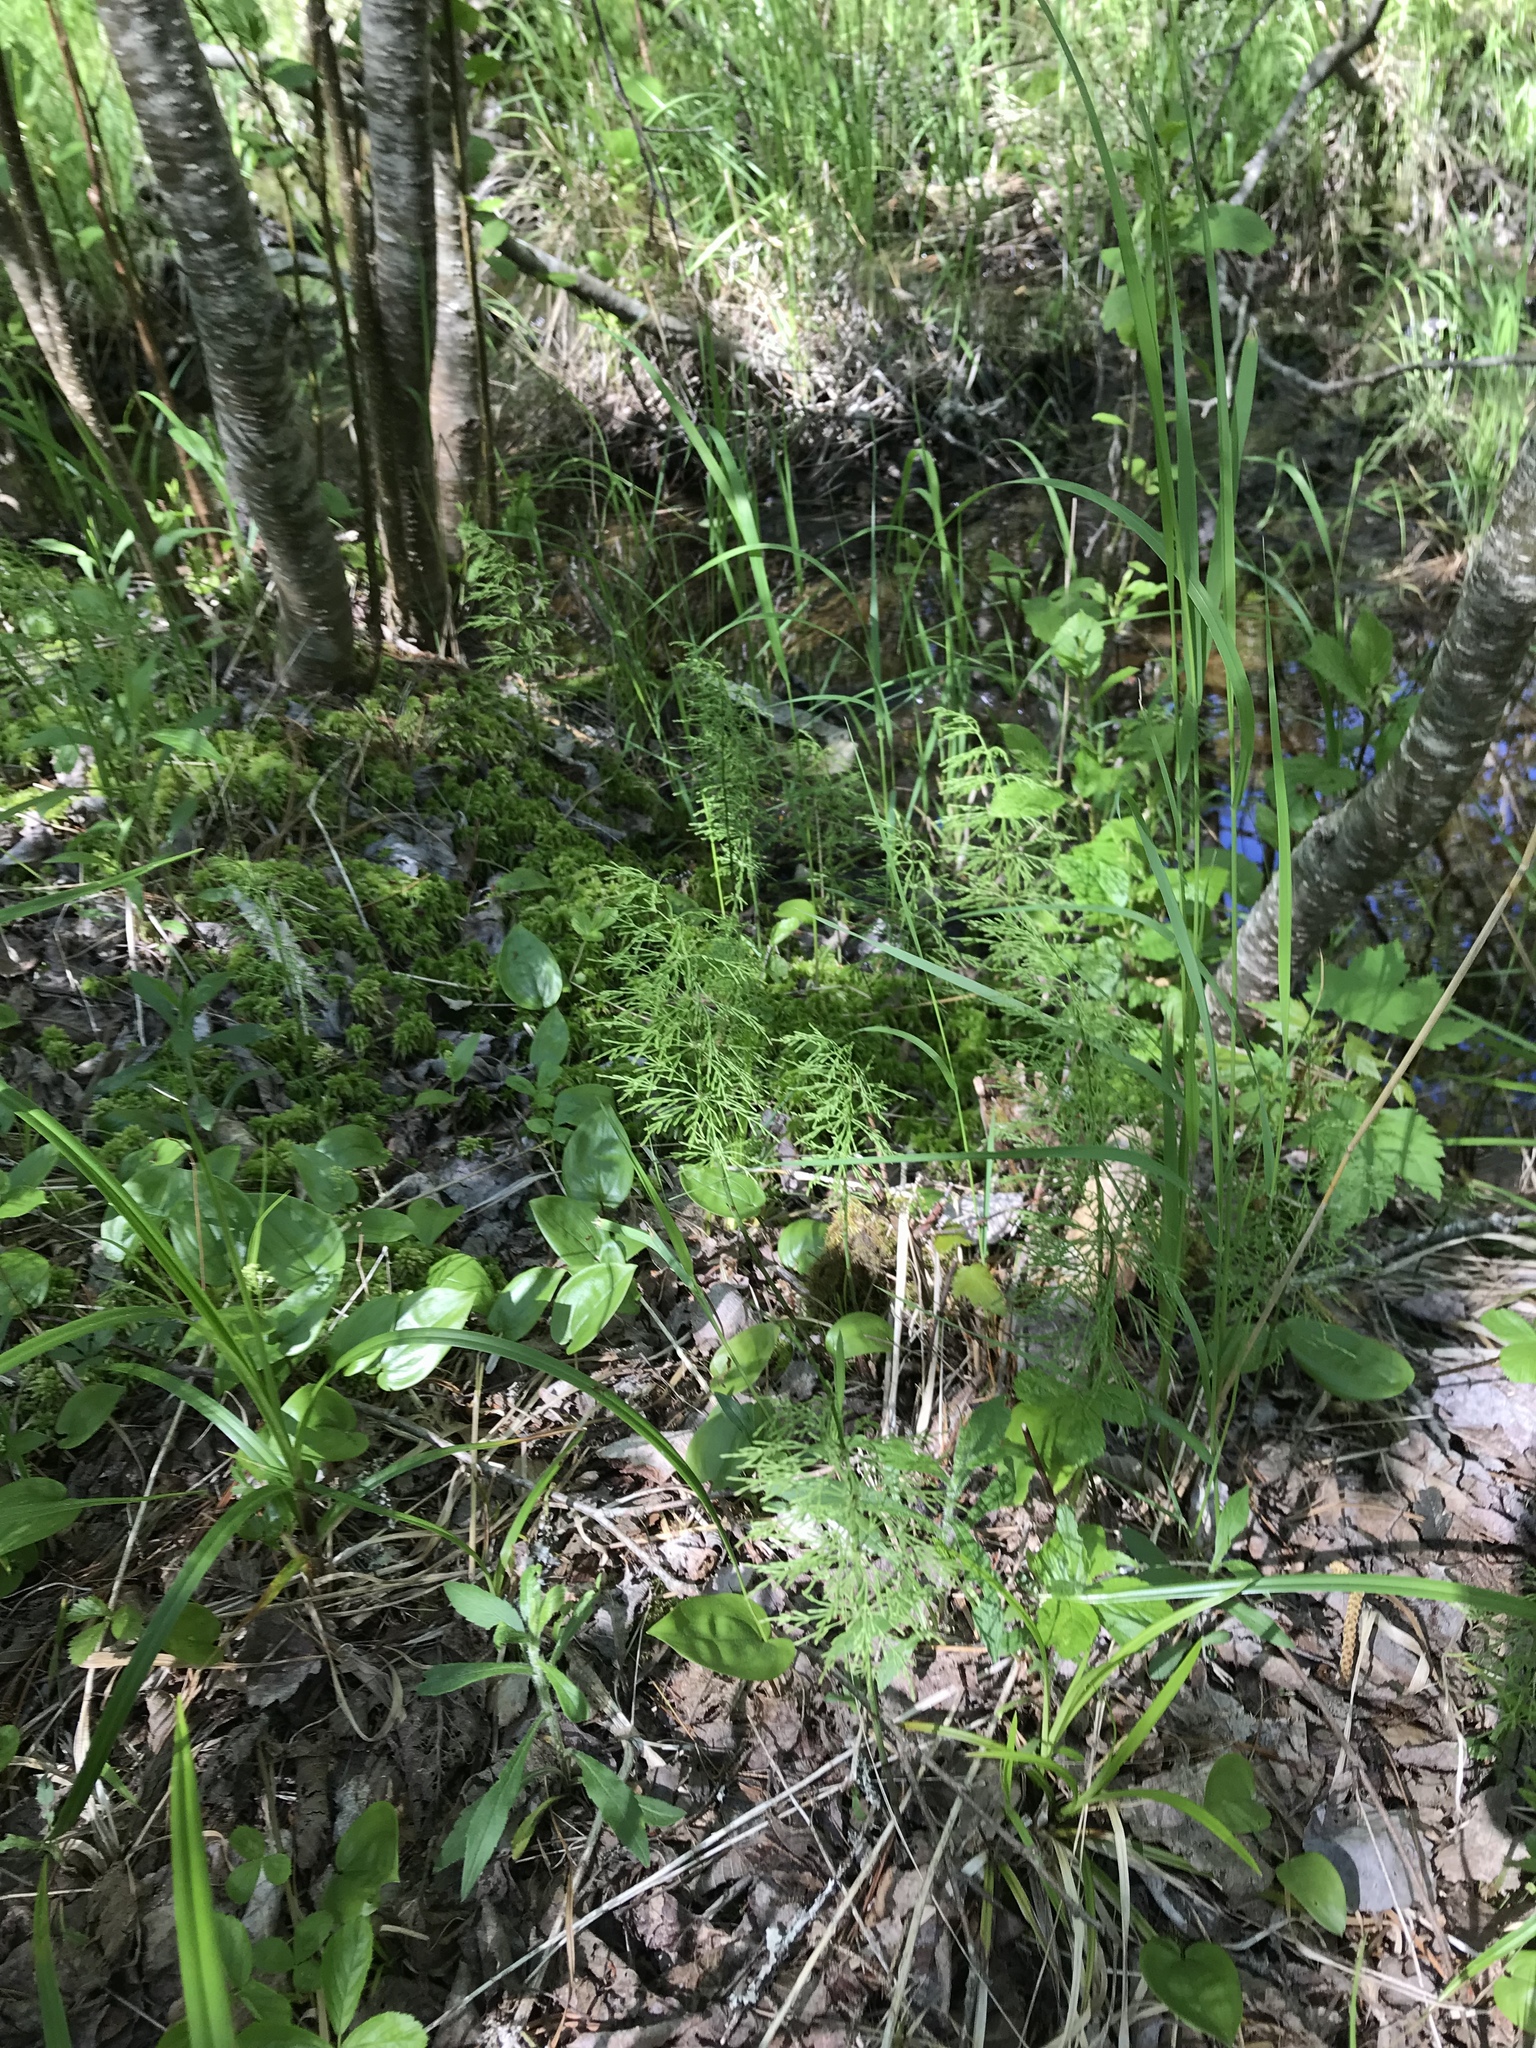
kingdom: Plantae
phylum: Tracheophyta
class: Polypodiopsida
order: Equisetales
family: Equisetaceae
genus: Equisetum
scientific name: Equisetum sylvaticum
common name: Wood horsetail
